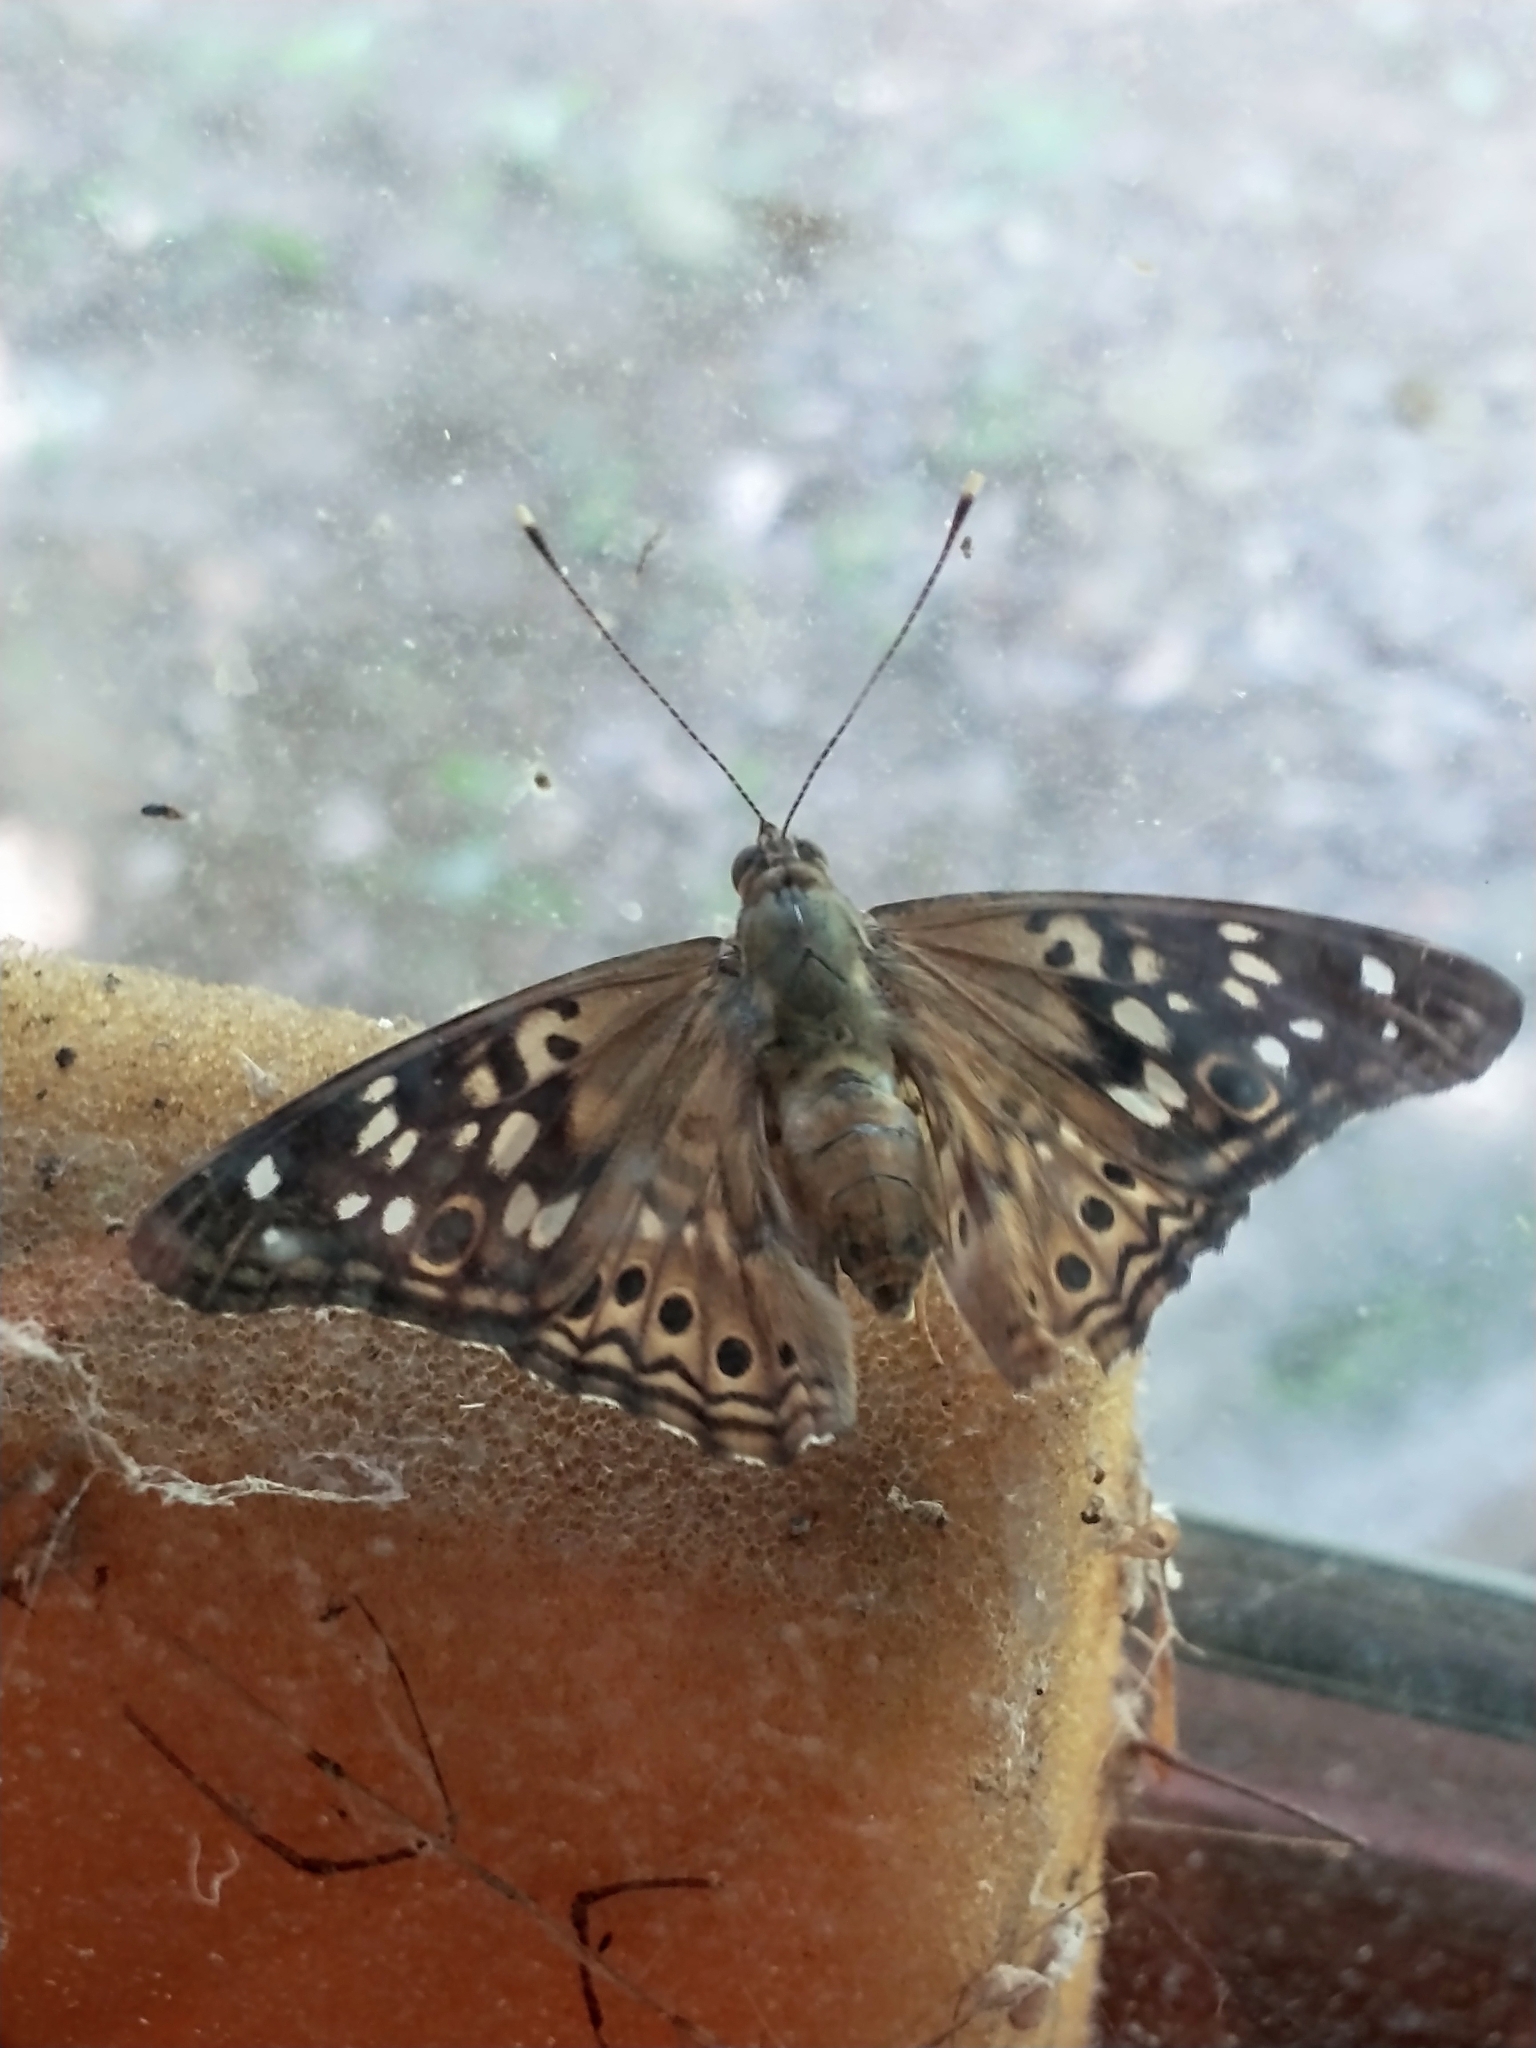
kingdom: Animalia
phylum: Arthropoda
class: Insecta
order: Lepidoptera
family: Nymphalidae
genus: Asterocampa
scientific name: Asterocampa celtis
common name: Hackberry emperor
